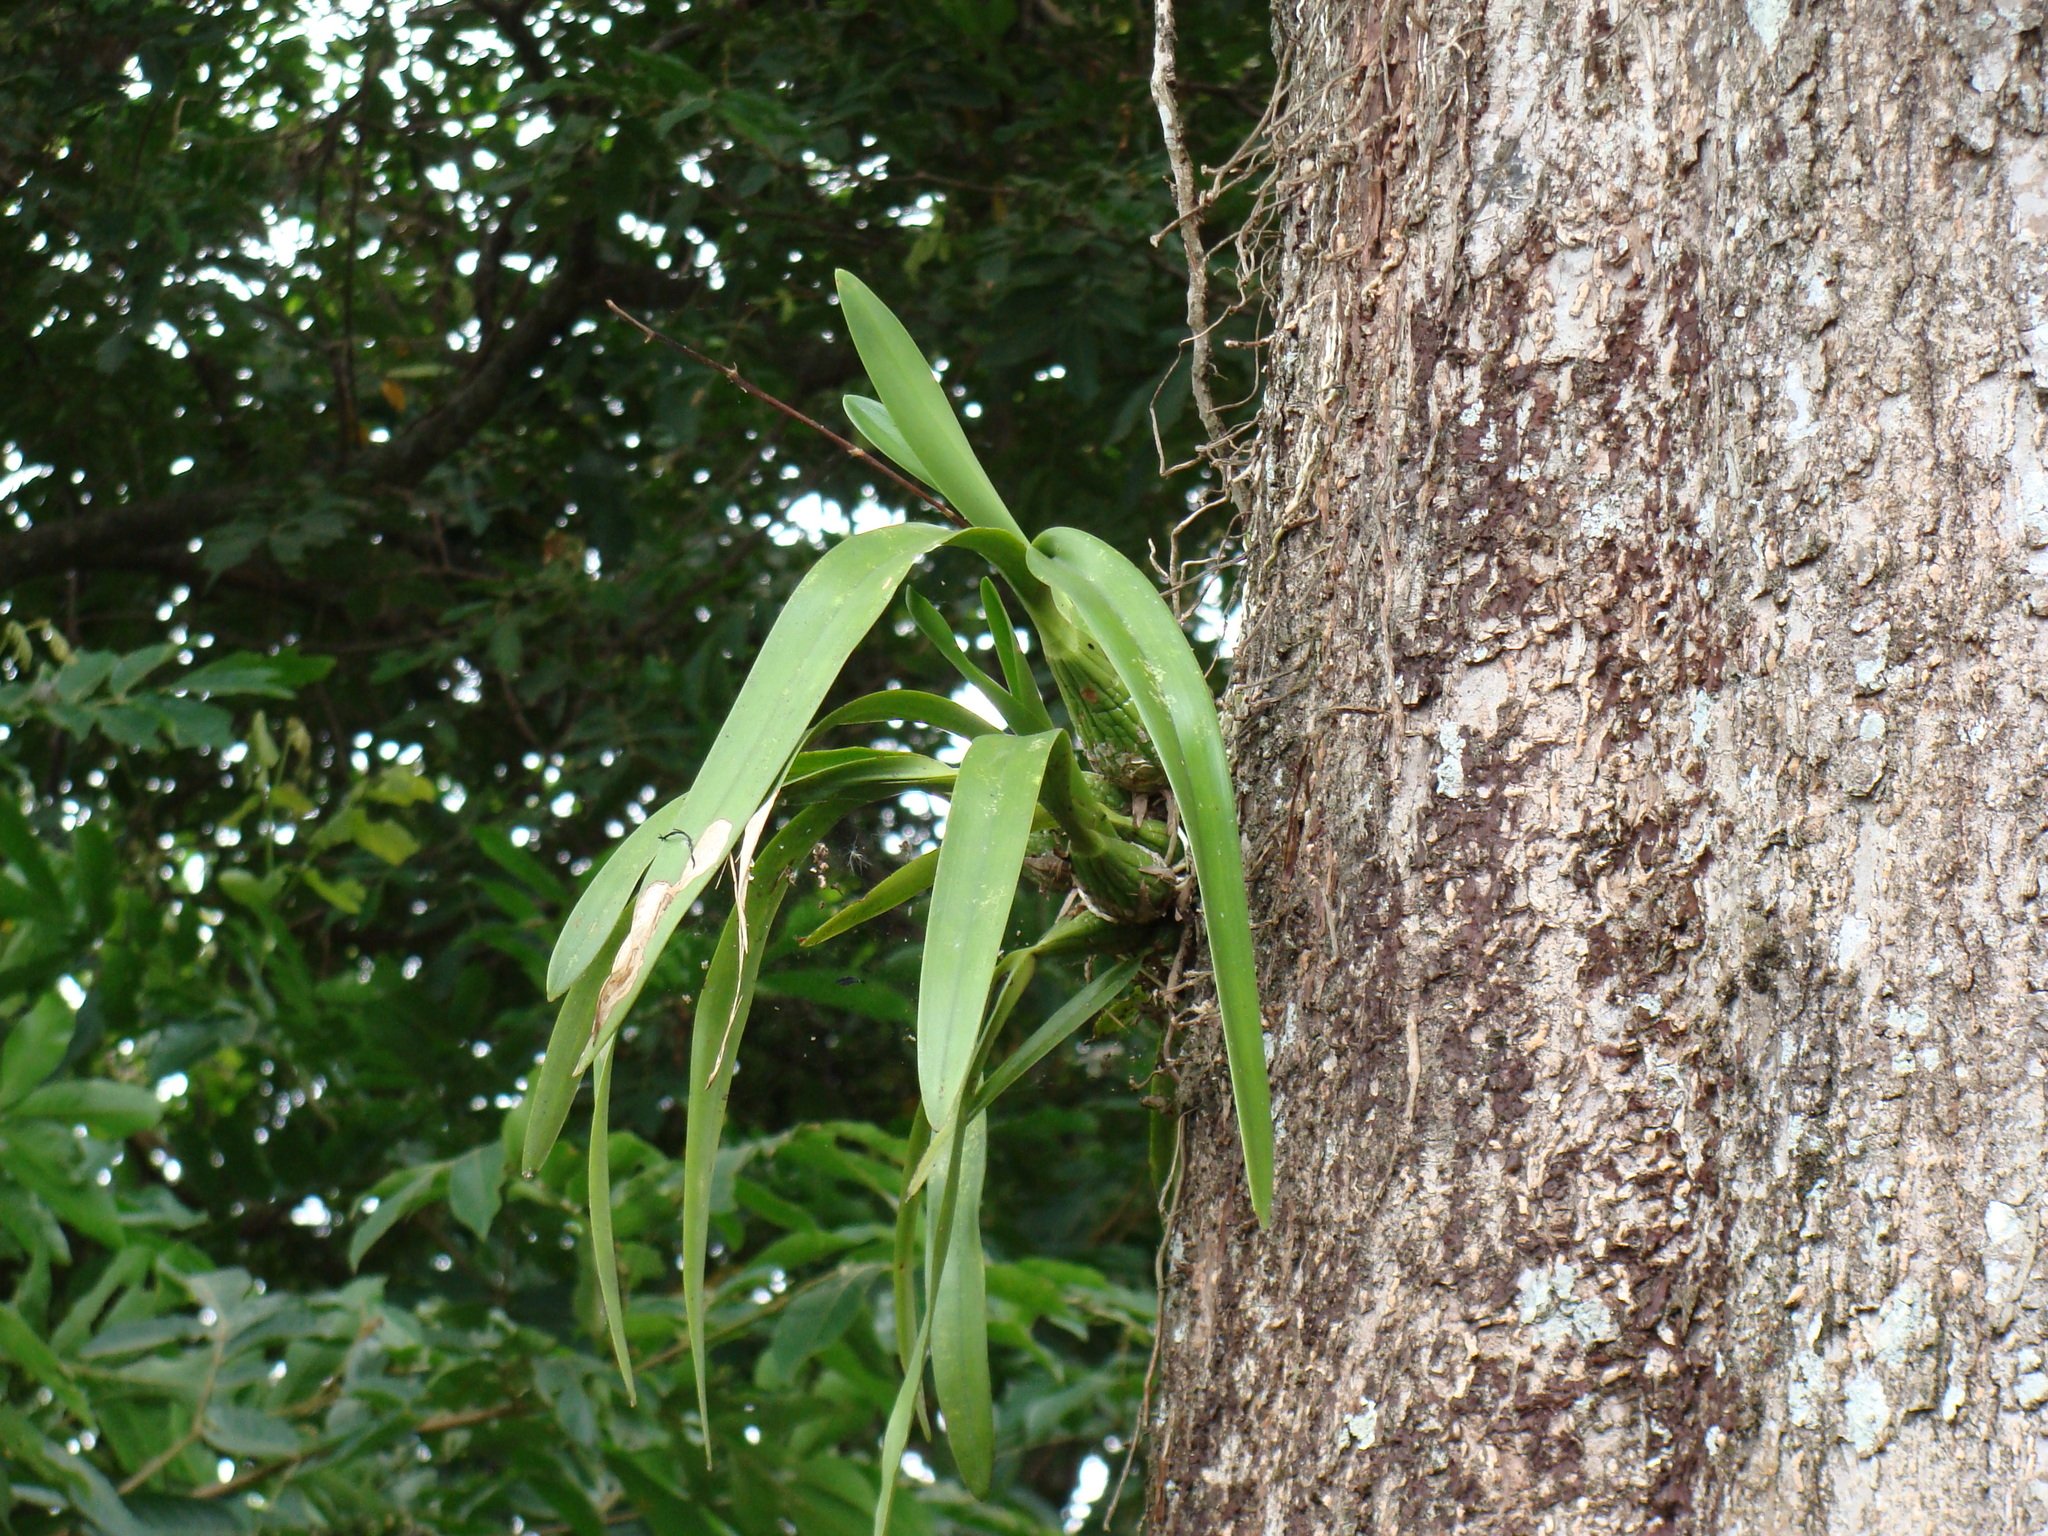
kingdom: Plantae
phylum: Tracheophyta
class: Liliopsida
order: Asparagales
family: Orchidaceae
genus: Encyclia
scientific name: Encyclia cordigera
